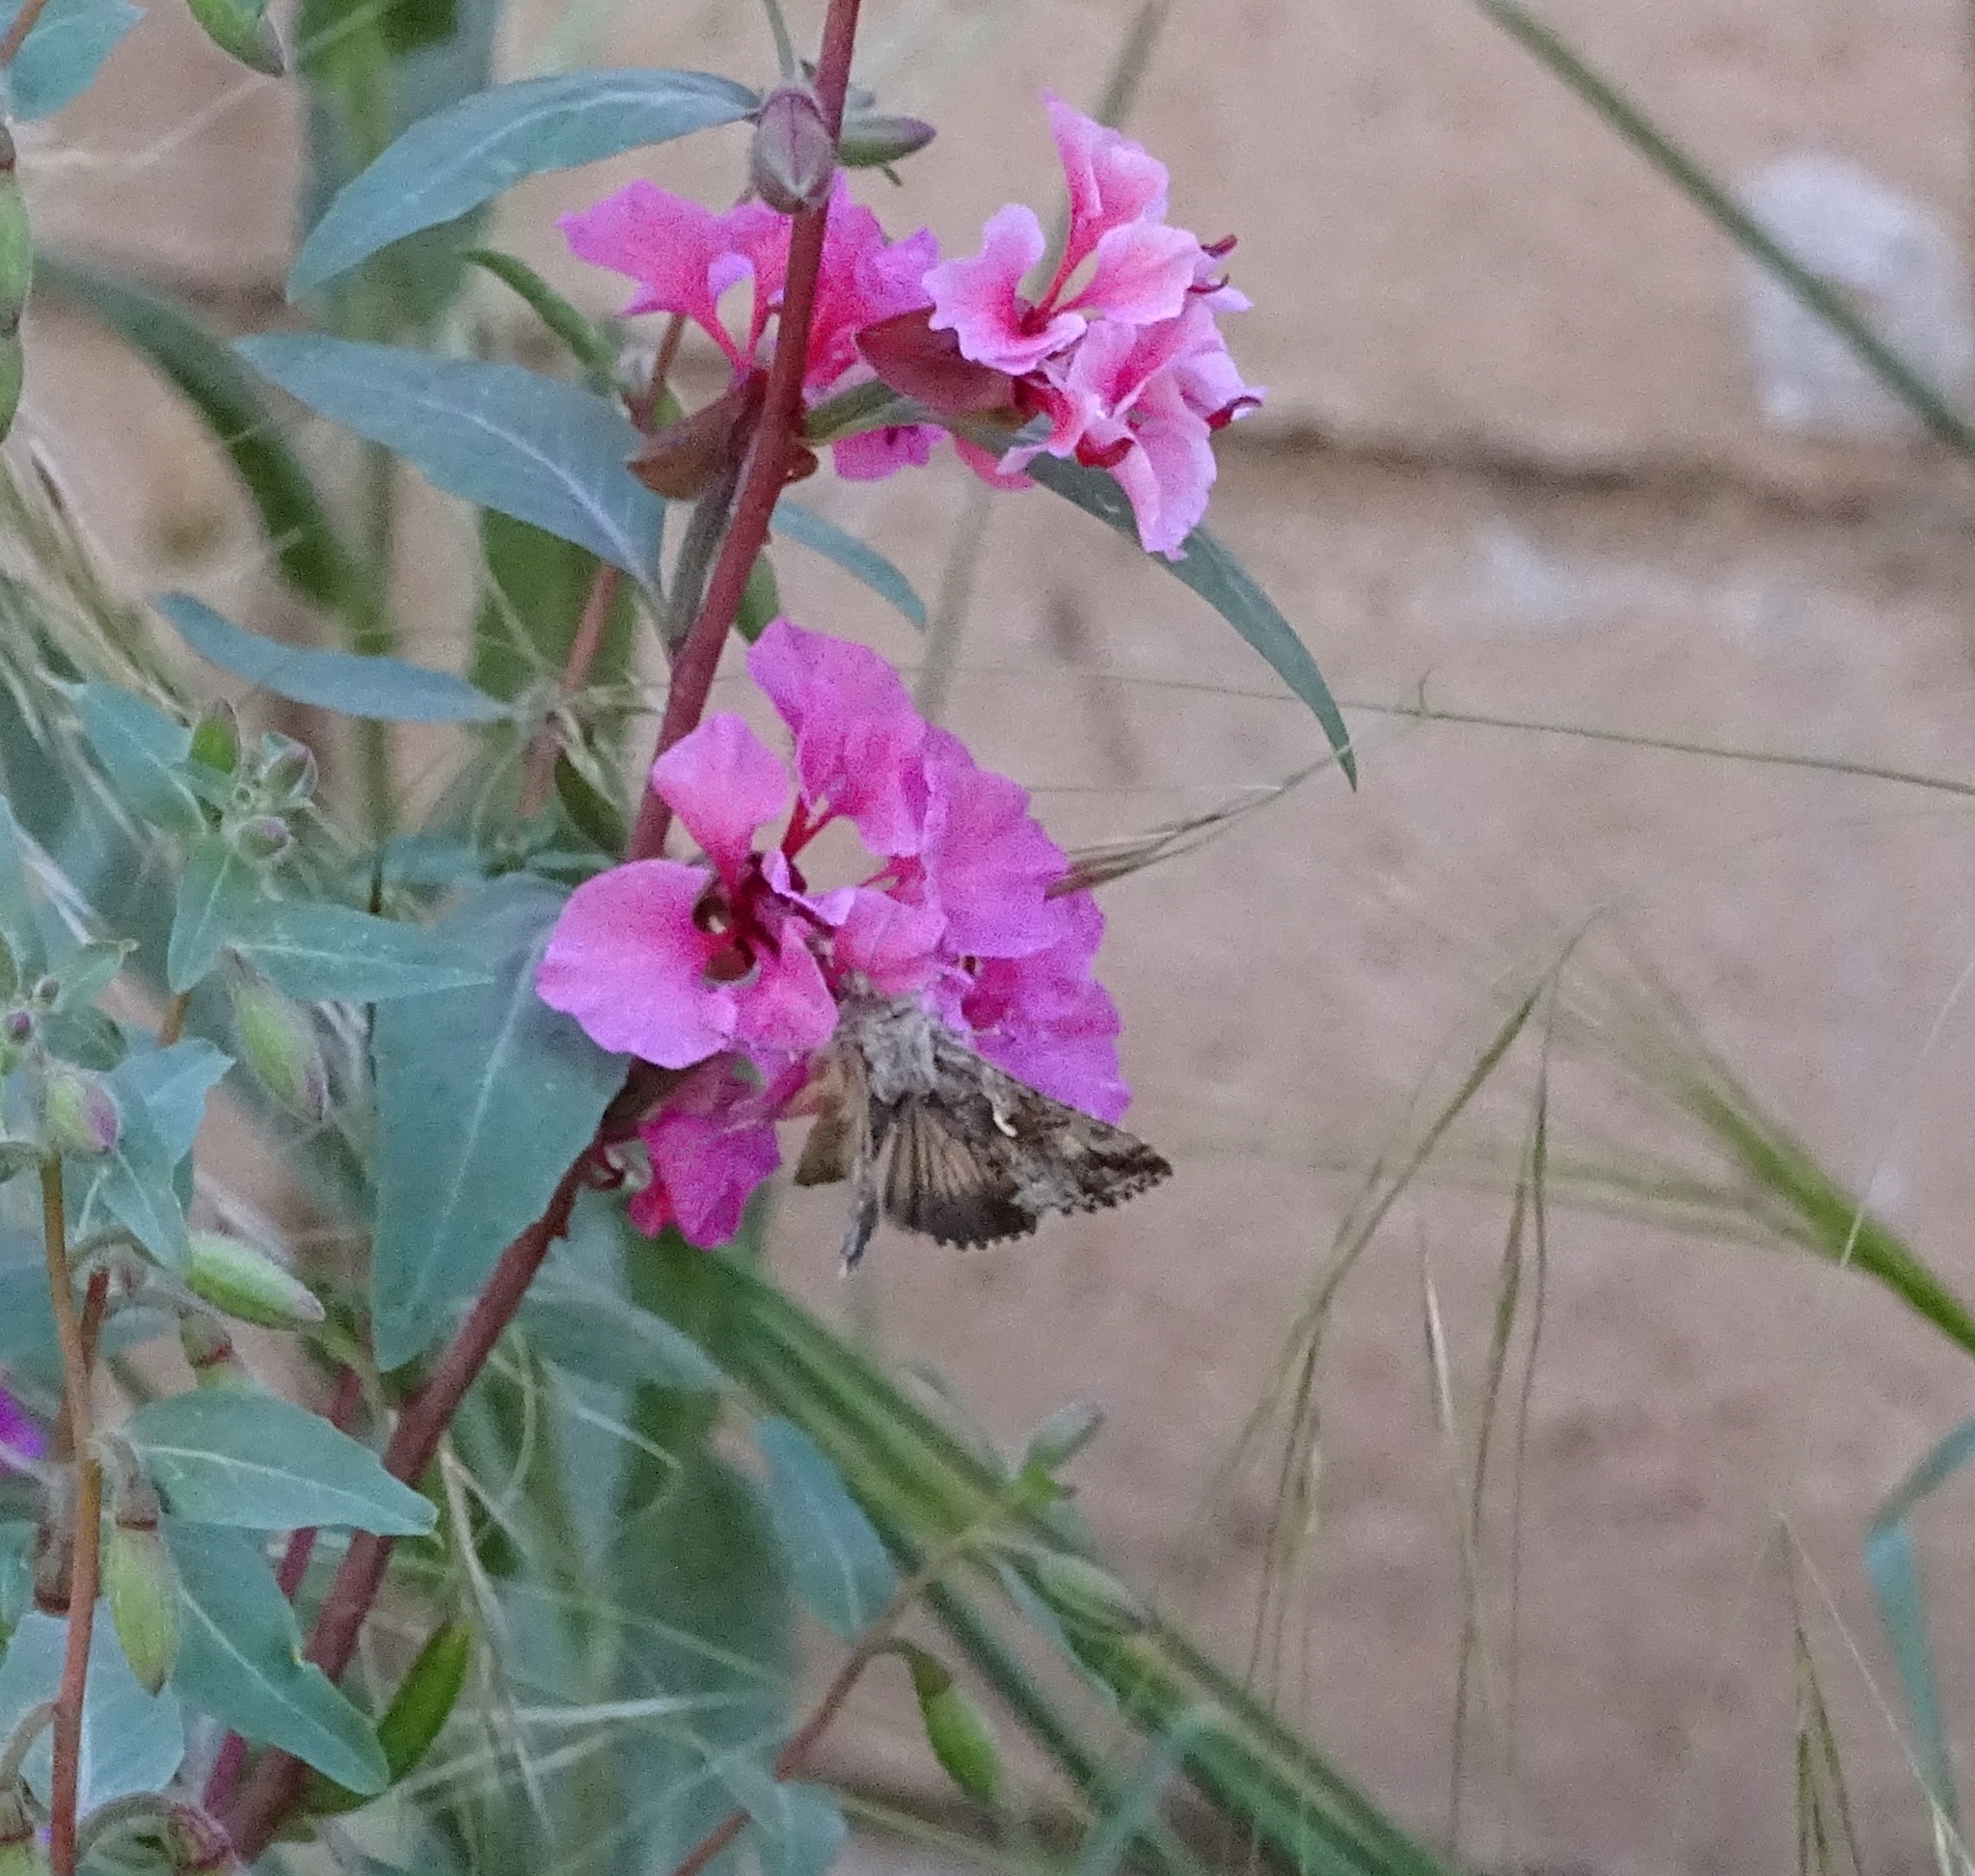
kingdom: Animalia
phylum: Arthropoda
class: Insecta
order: Lepidoptera
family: Noctuidae
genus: Autographa
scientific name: Autographa californica
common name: Alfalfa looper
